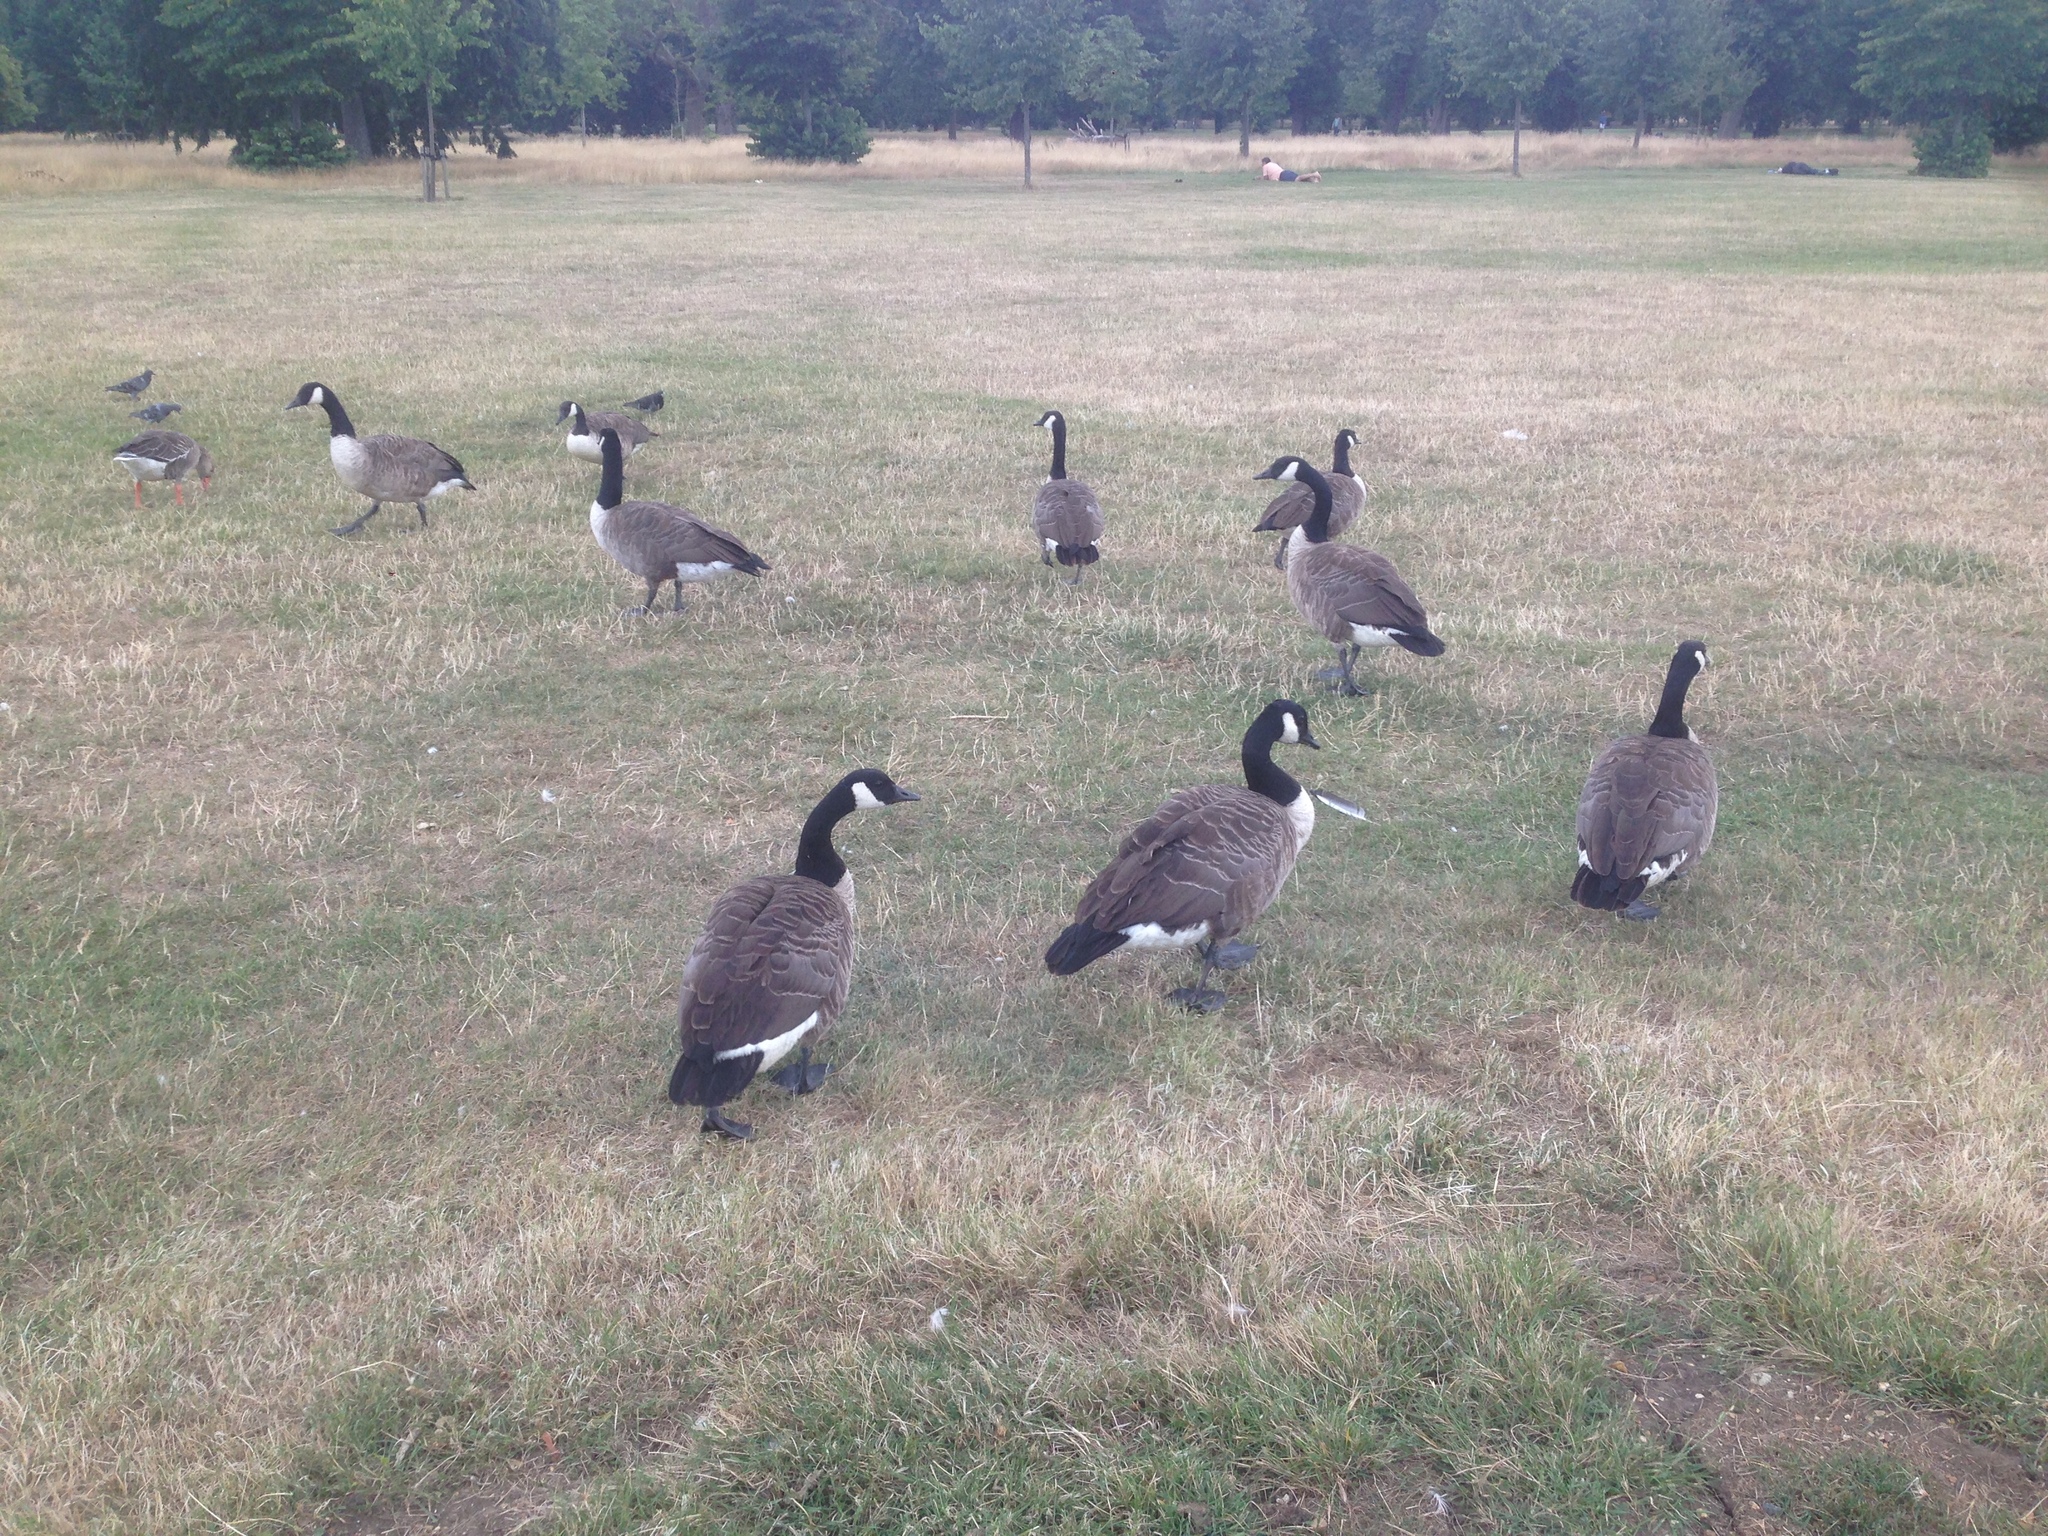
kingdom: Animalia
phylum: Chordata
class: Aves
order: Anseriformes
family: Anatidae
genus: Branta
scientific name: Branta canadensis
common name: Canada goose
